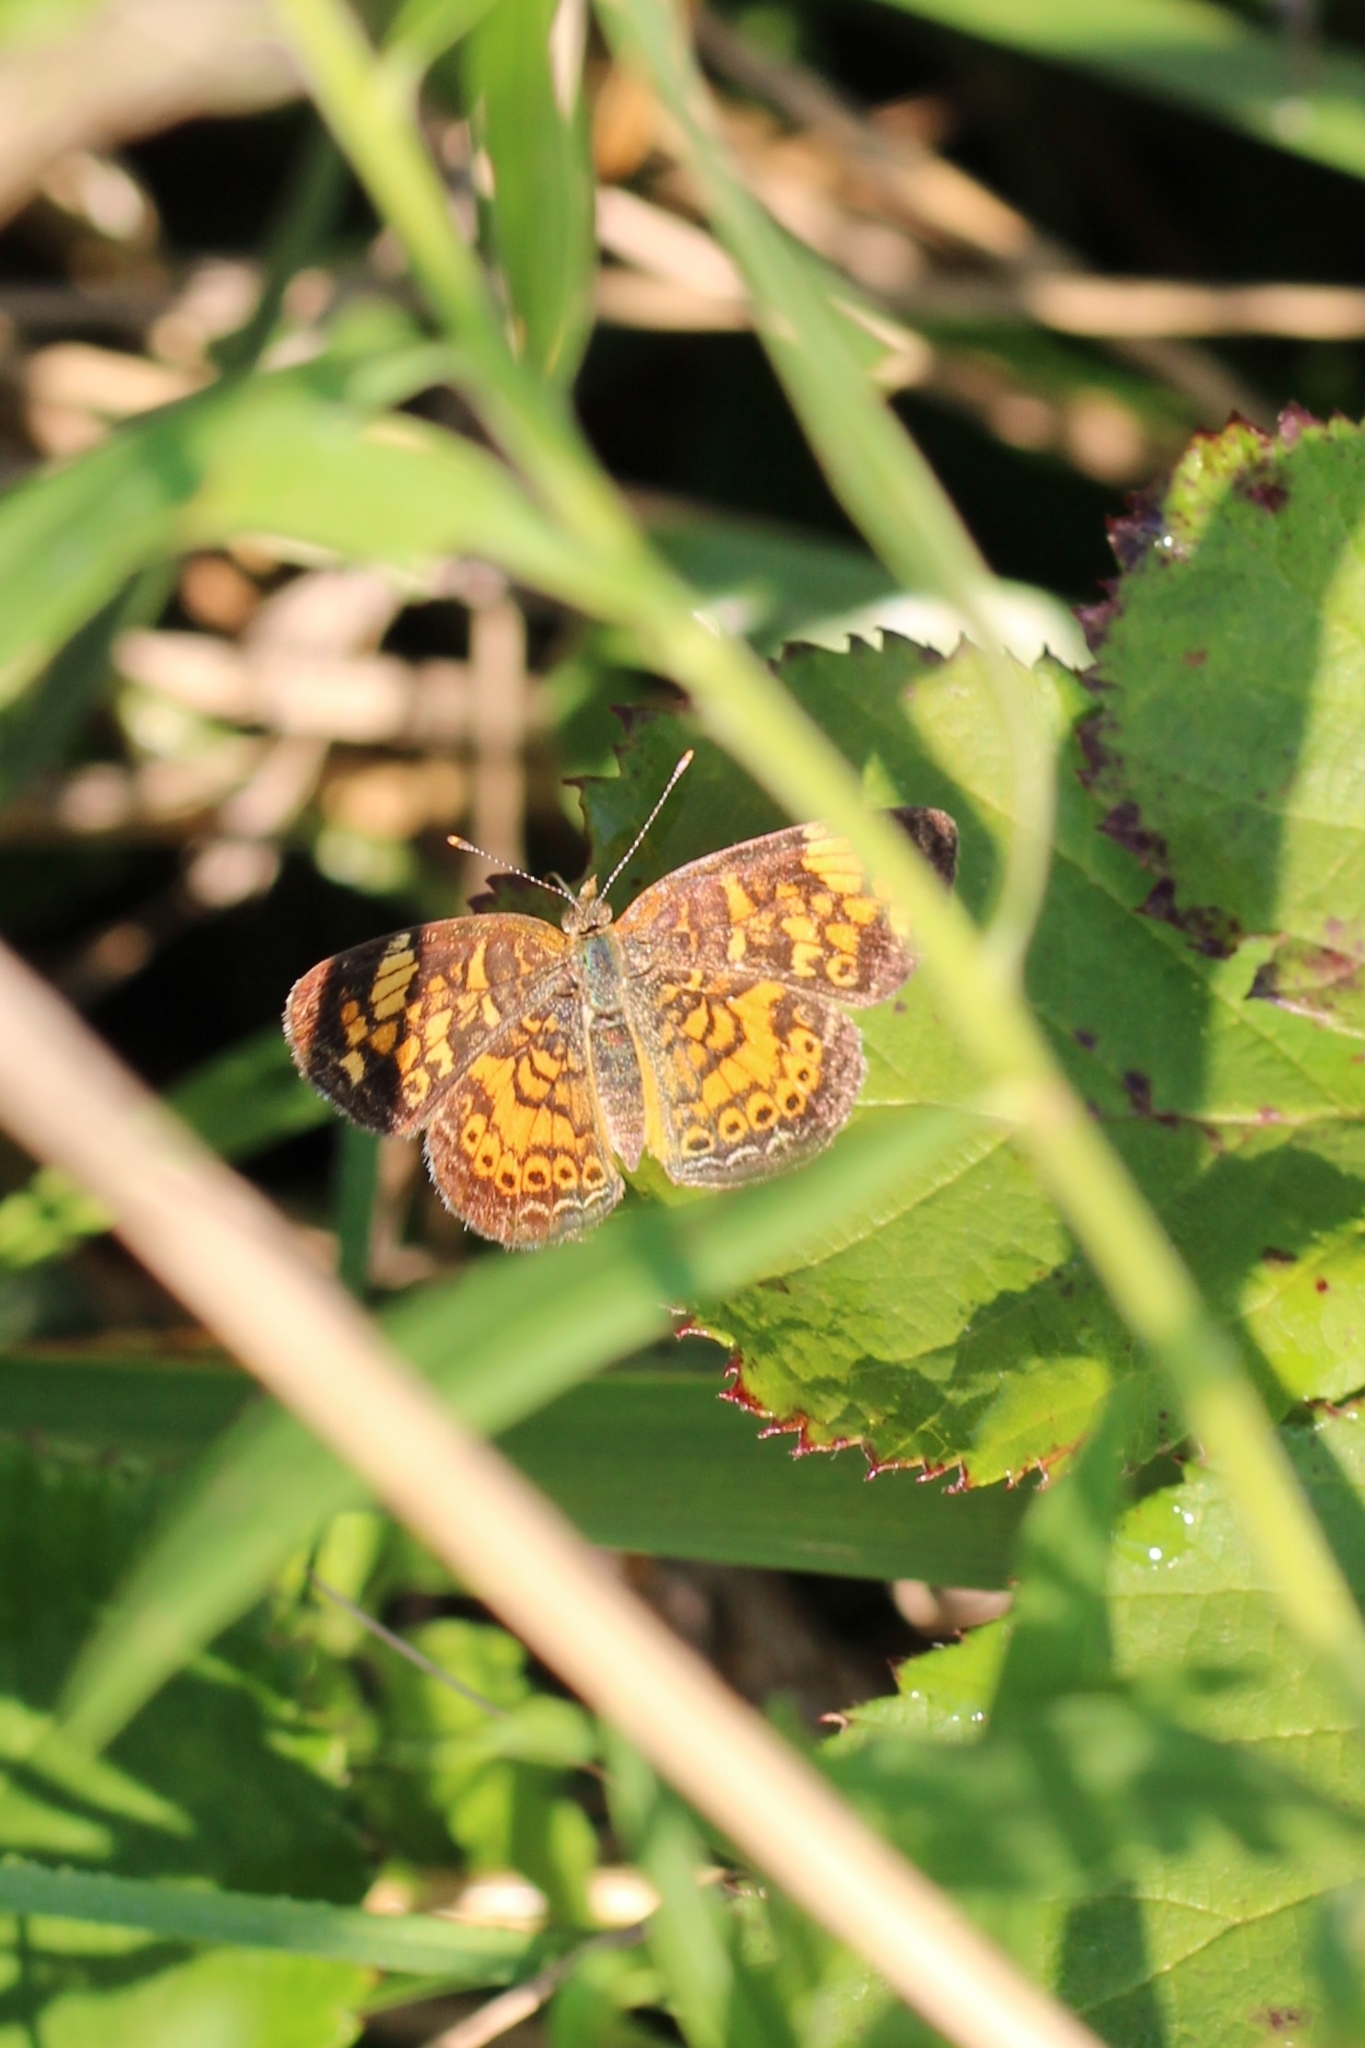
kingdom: Animalia
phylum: Arthropoda
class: Insecta
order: Lepidoptera
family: Nymphalidae
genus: Phyciodes
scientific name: Phyciodes tharos
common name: Pearl crescent
